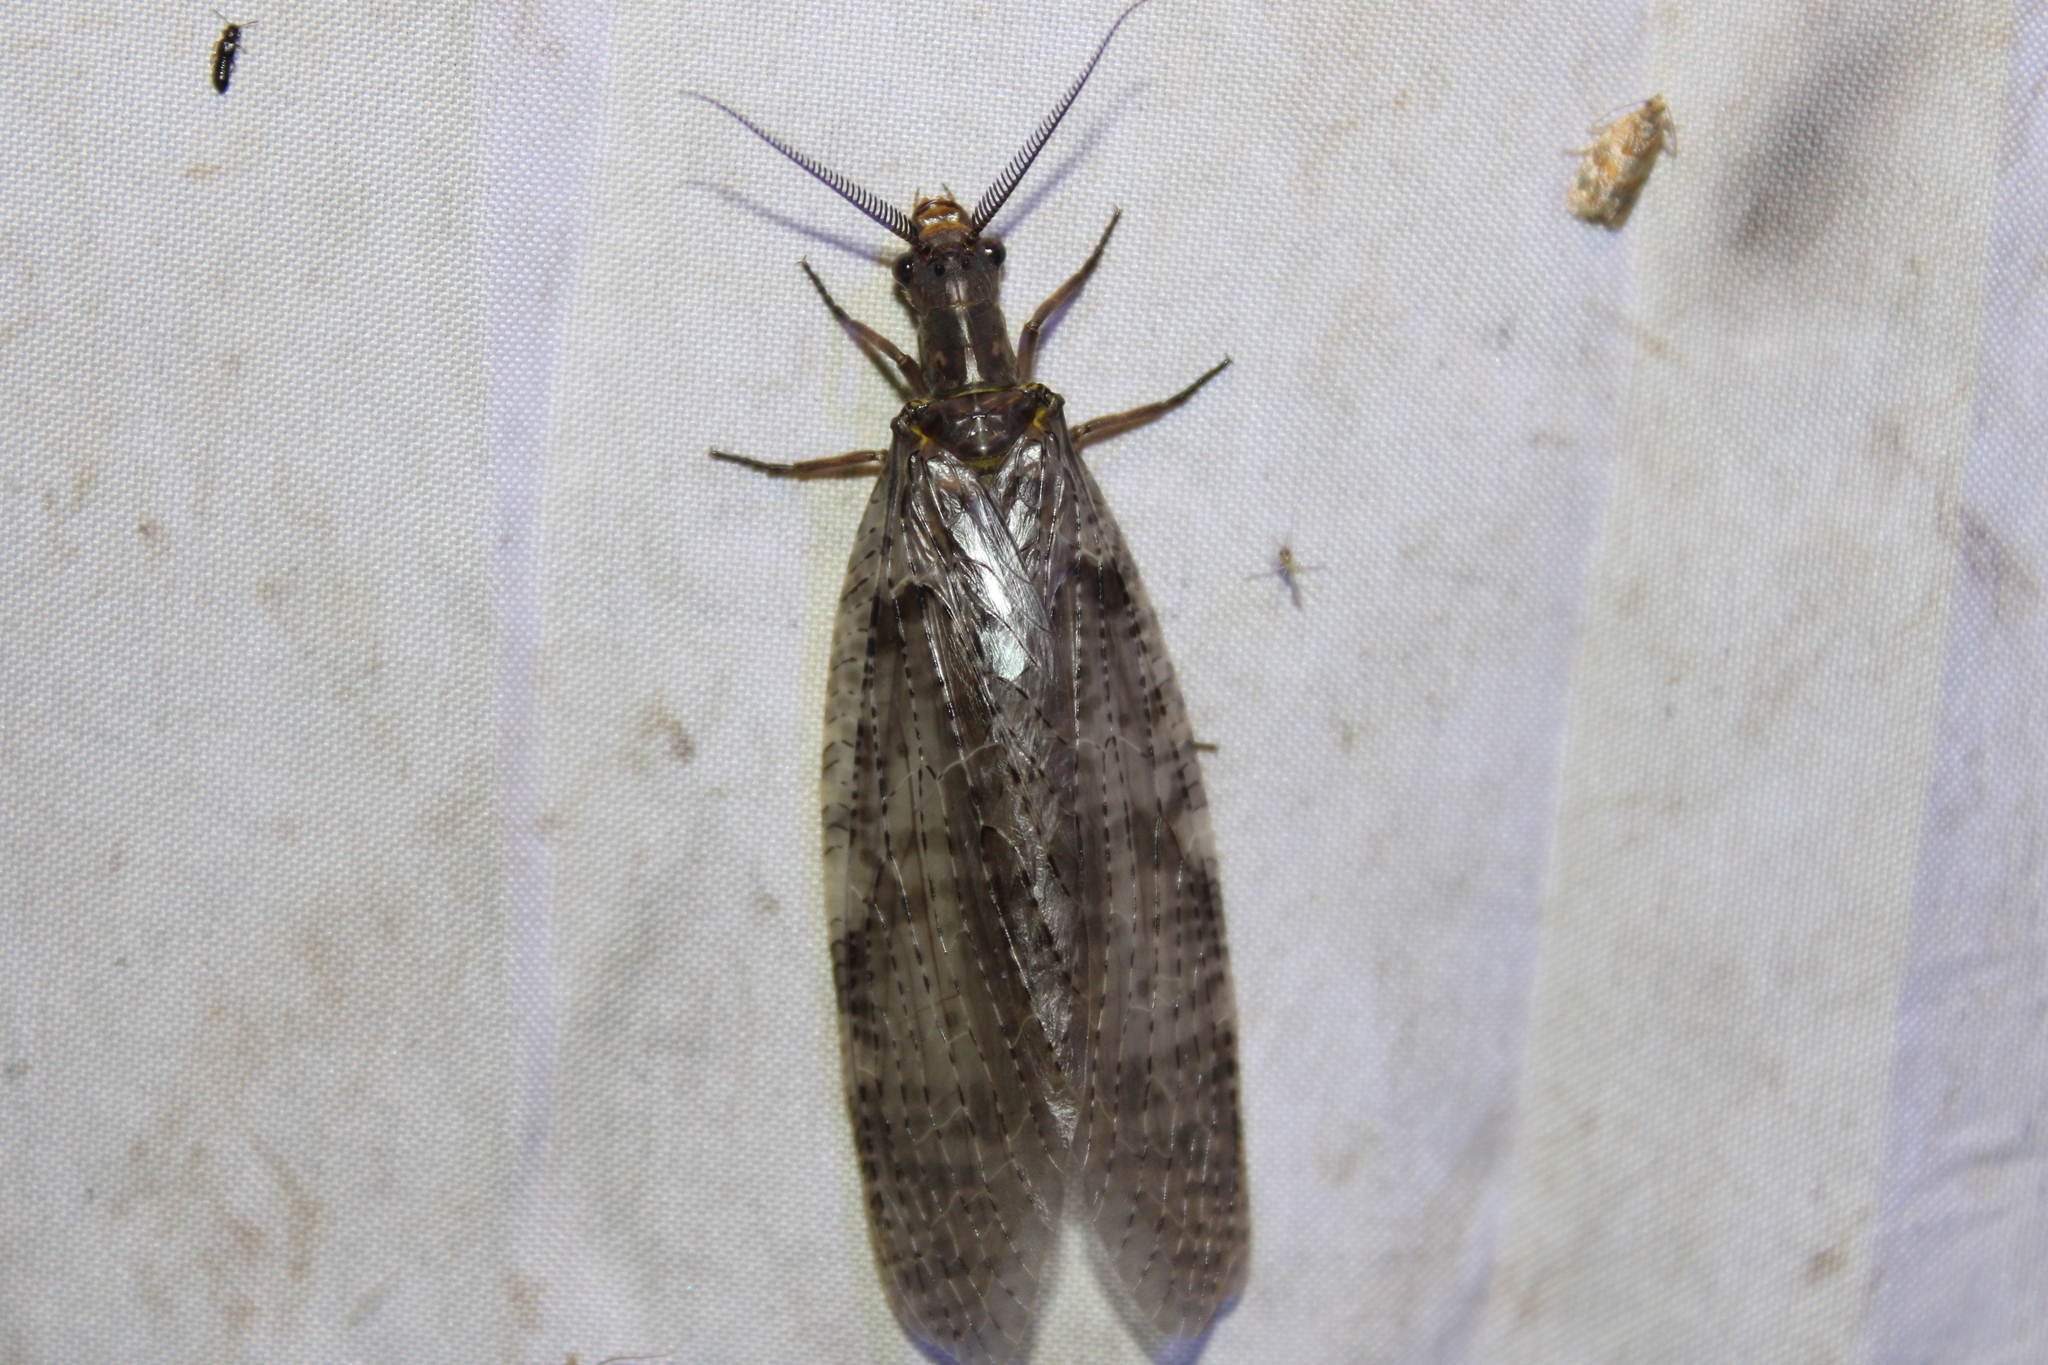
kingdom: Animalia
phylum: Arthropoda
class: Insecta
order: Megaloptera
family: Corydalidae
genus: Chauliodes
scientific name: Chauliodes pectinicornis
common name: Summer fishfly
